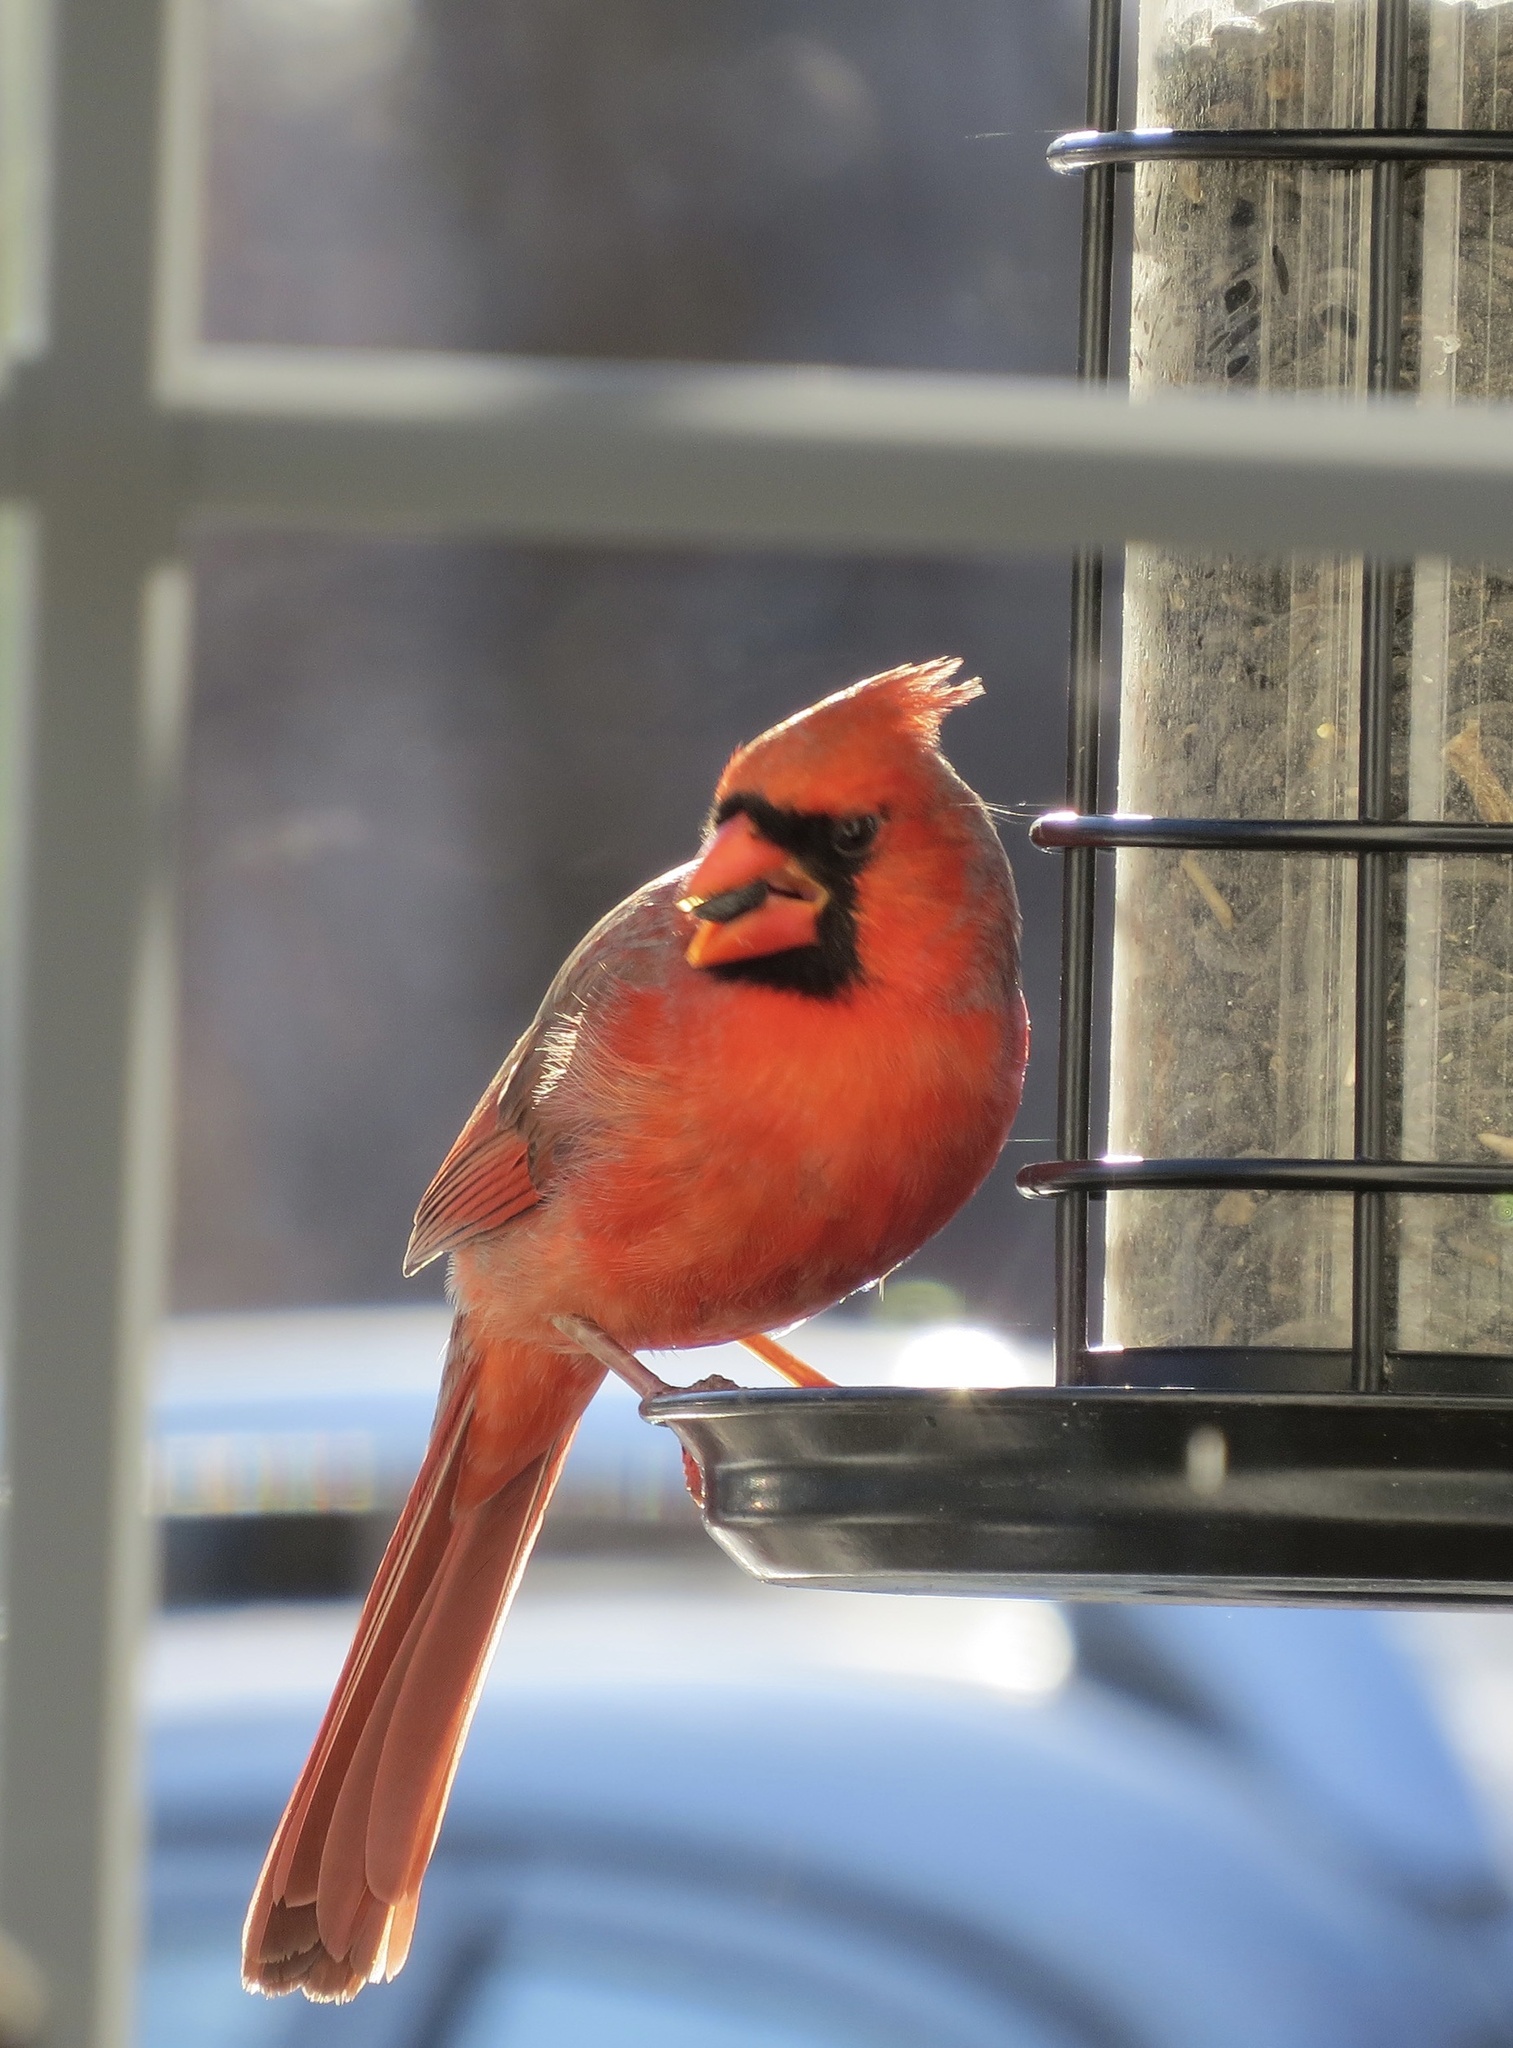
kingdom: Animalia
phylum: Chordata
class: Aves
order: Passeriformes
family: Cardinalidae
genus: Cardinalis
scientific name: Cardinalis cardinalis
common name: Northern cardinal
